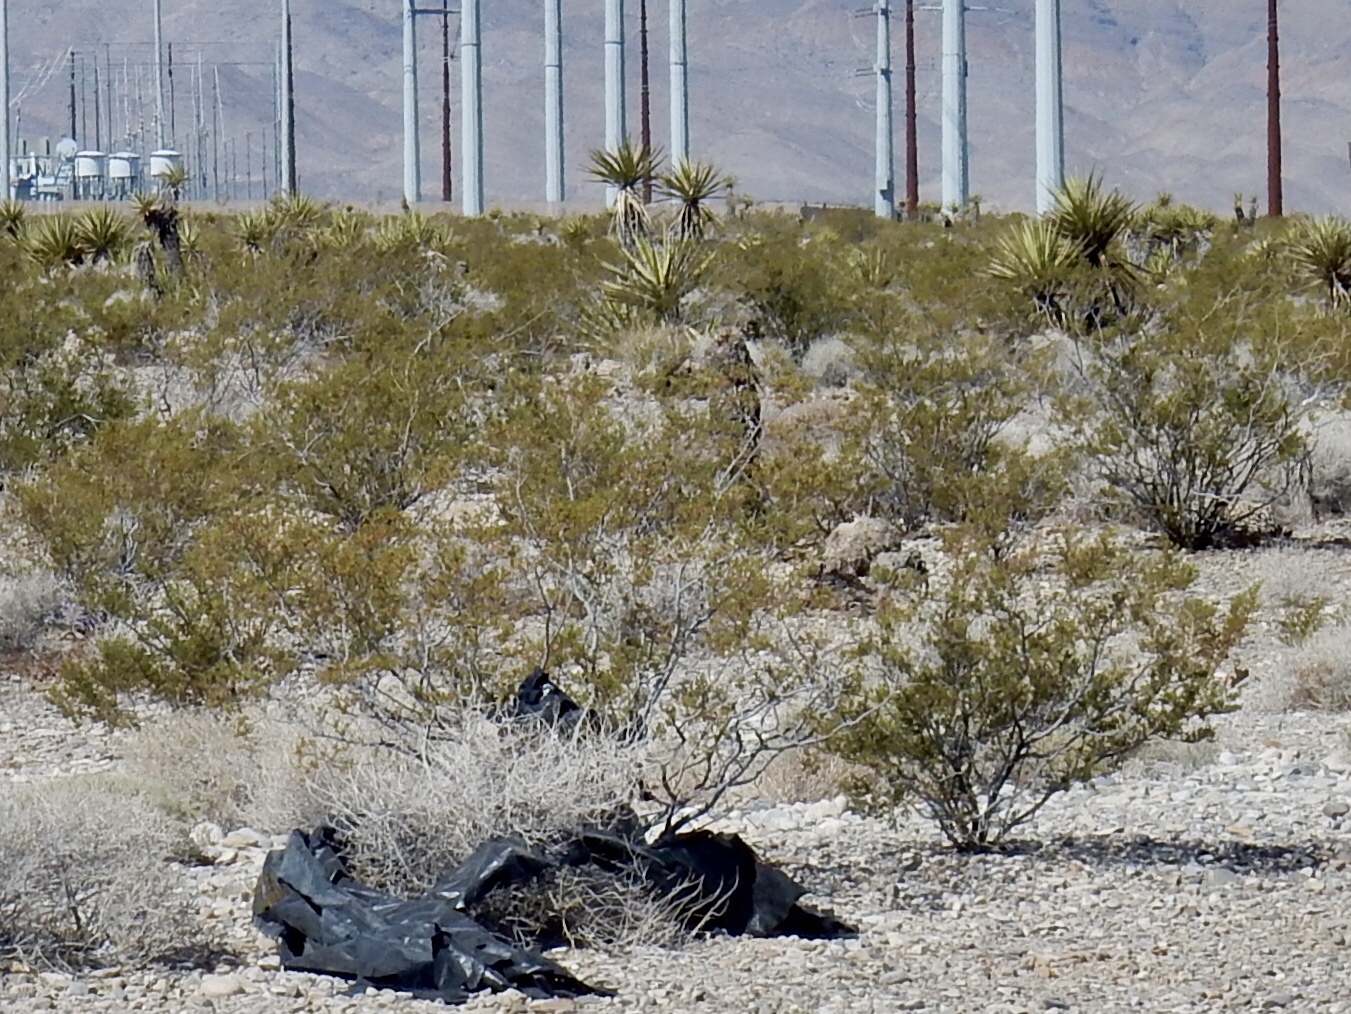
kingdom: Plantae
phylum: Tracheophyta
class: Magnoliopsida
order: Zygophyllales
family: Zygophyllaceae
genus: Larrea
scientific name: Larrea tridentata
